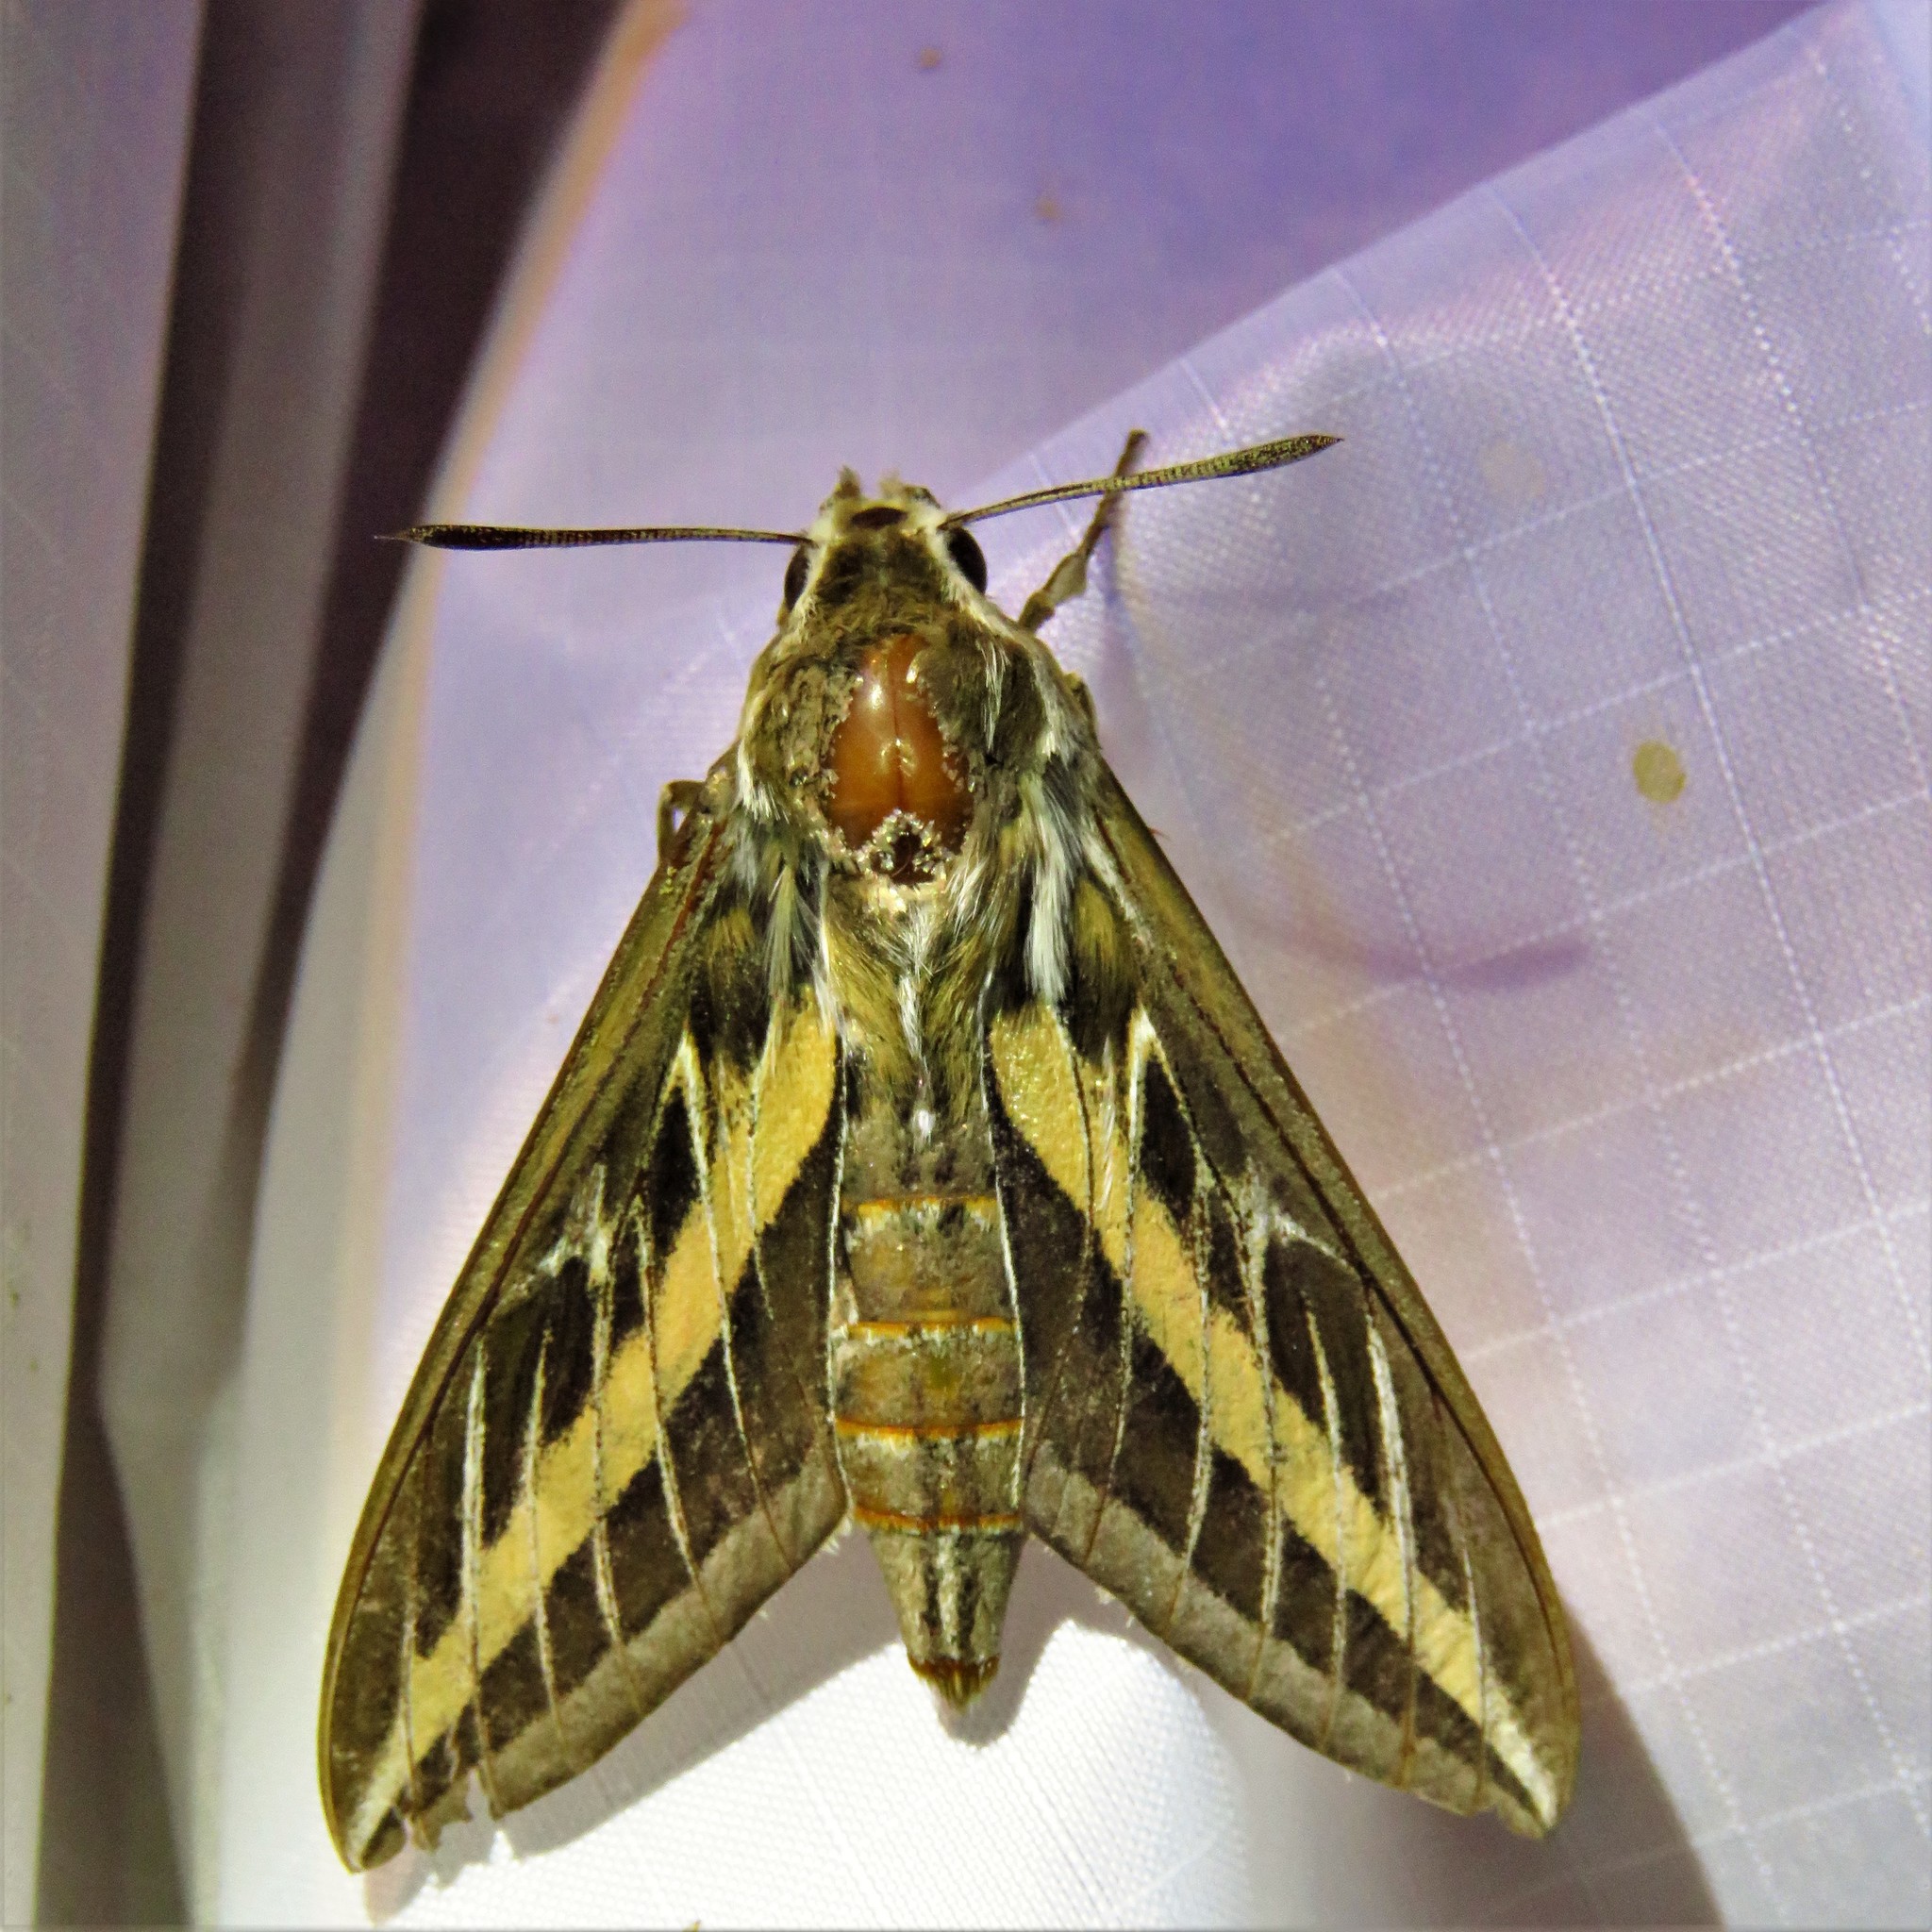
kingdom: Animalia
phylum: Arthropoda
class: Insecta
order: Lepidoptera
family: Sphingidae
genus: Hyles
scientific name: Hyles lineata
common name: White-lined sphinx
